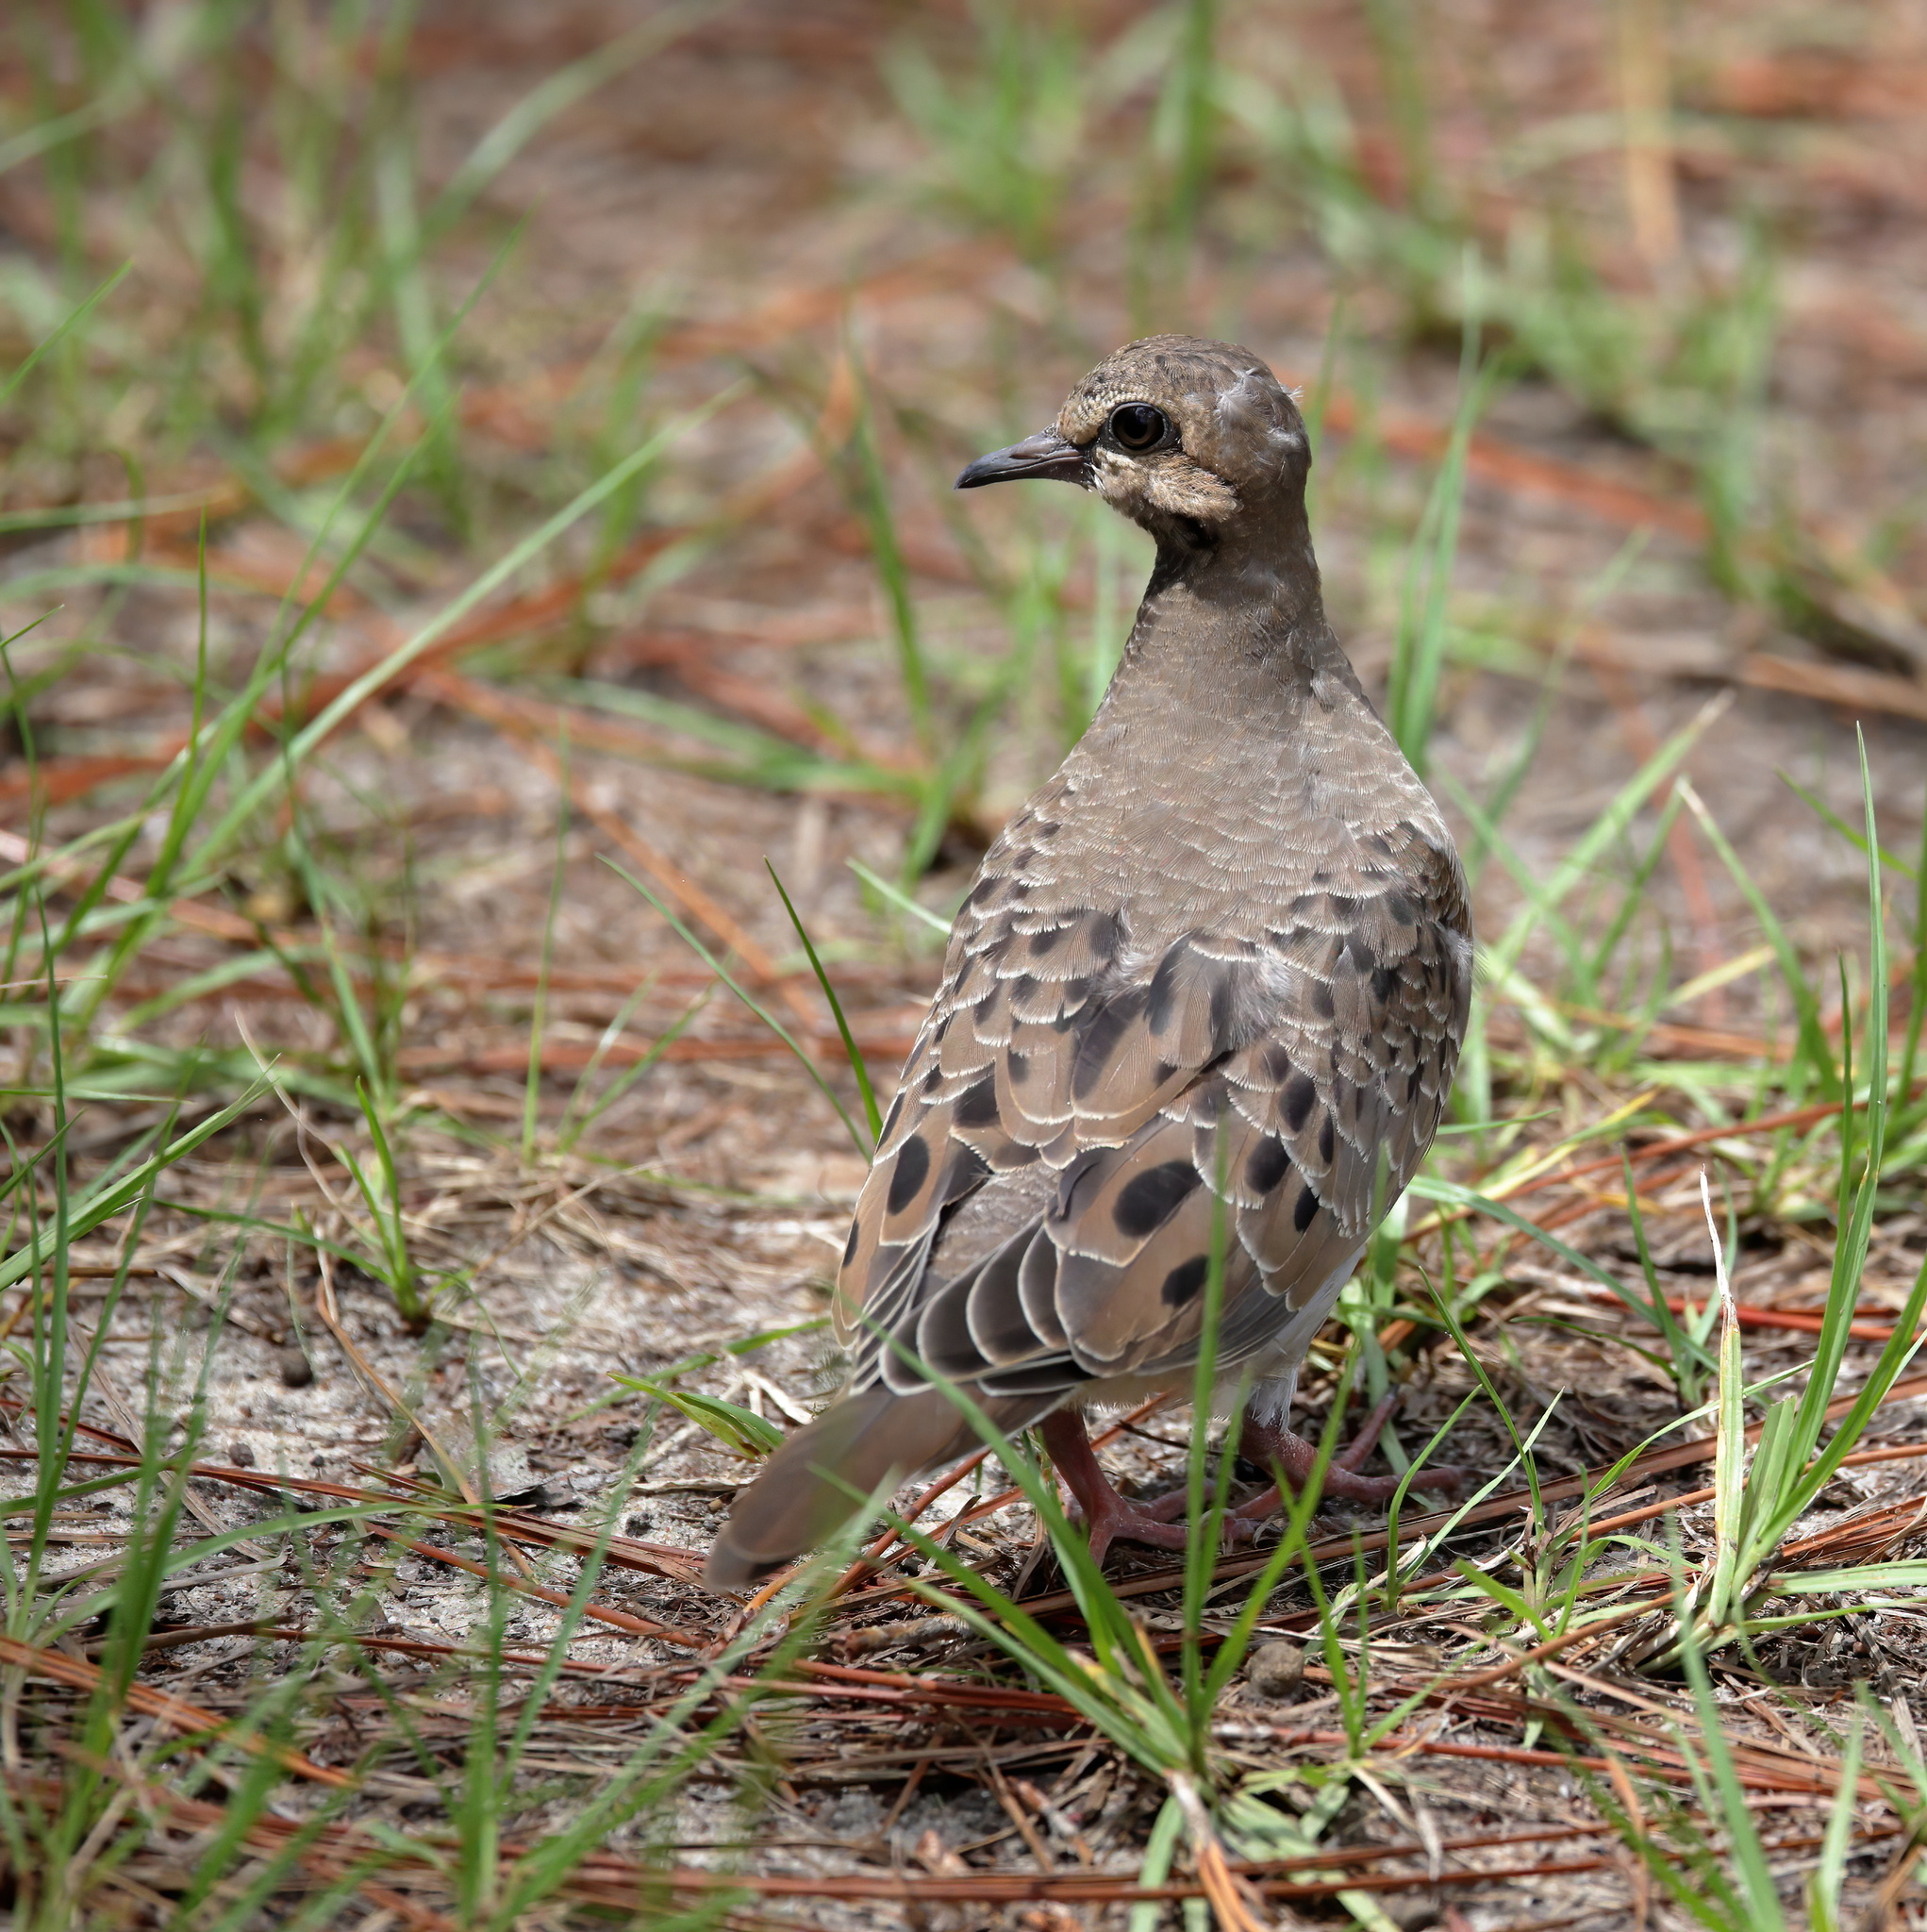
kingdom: Animalia
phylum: Chordata
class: Aves
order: Columbiformes
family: Columbidae
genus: Zenaida
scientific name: Zenaida macroura
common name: Mourning dove
